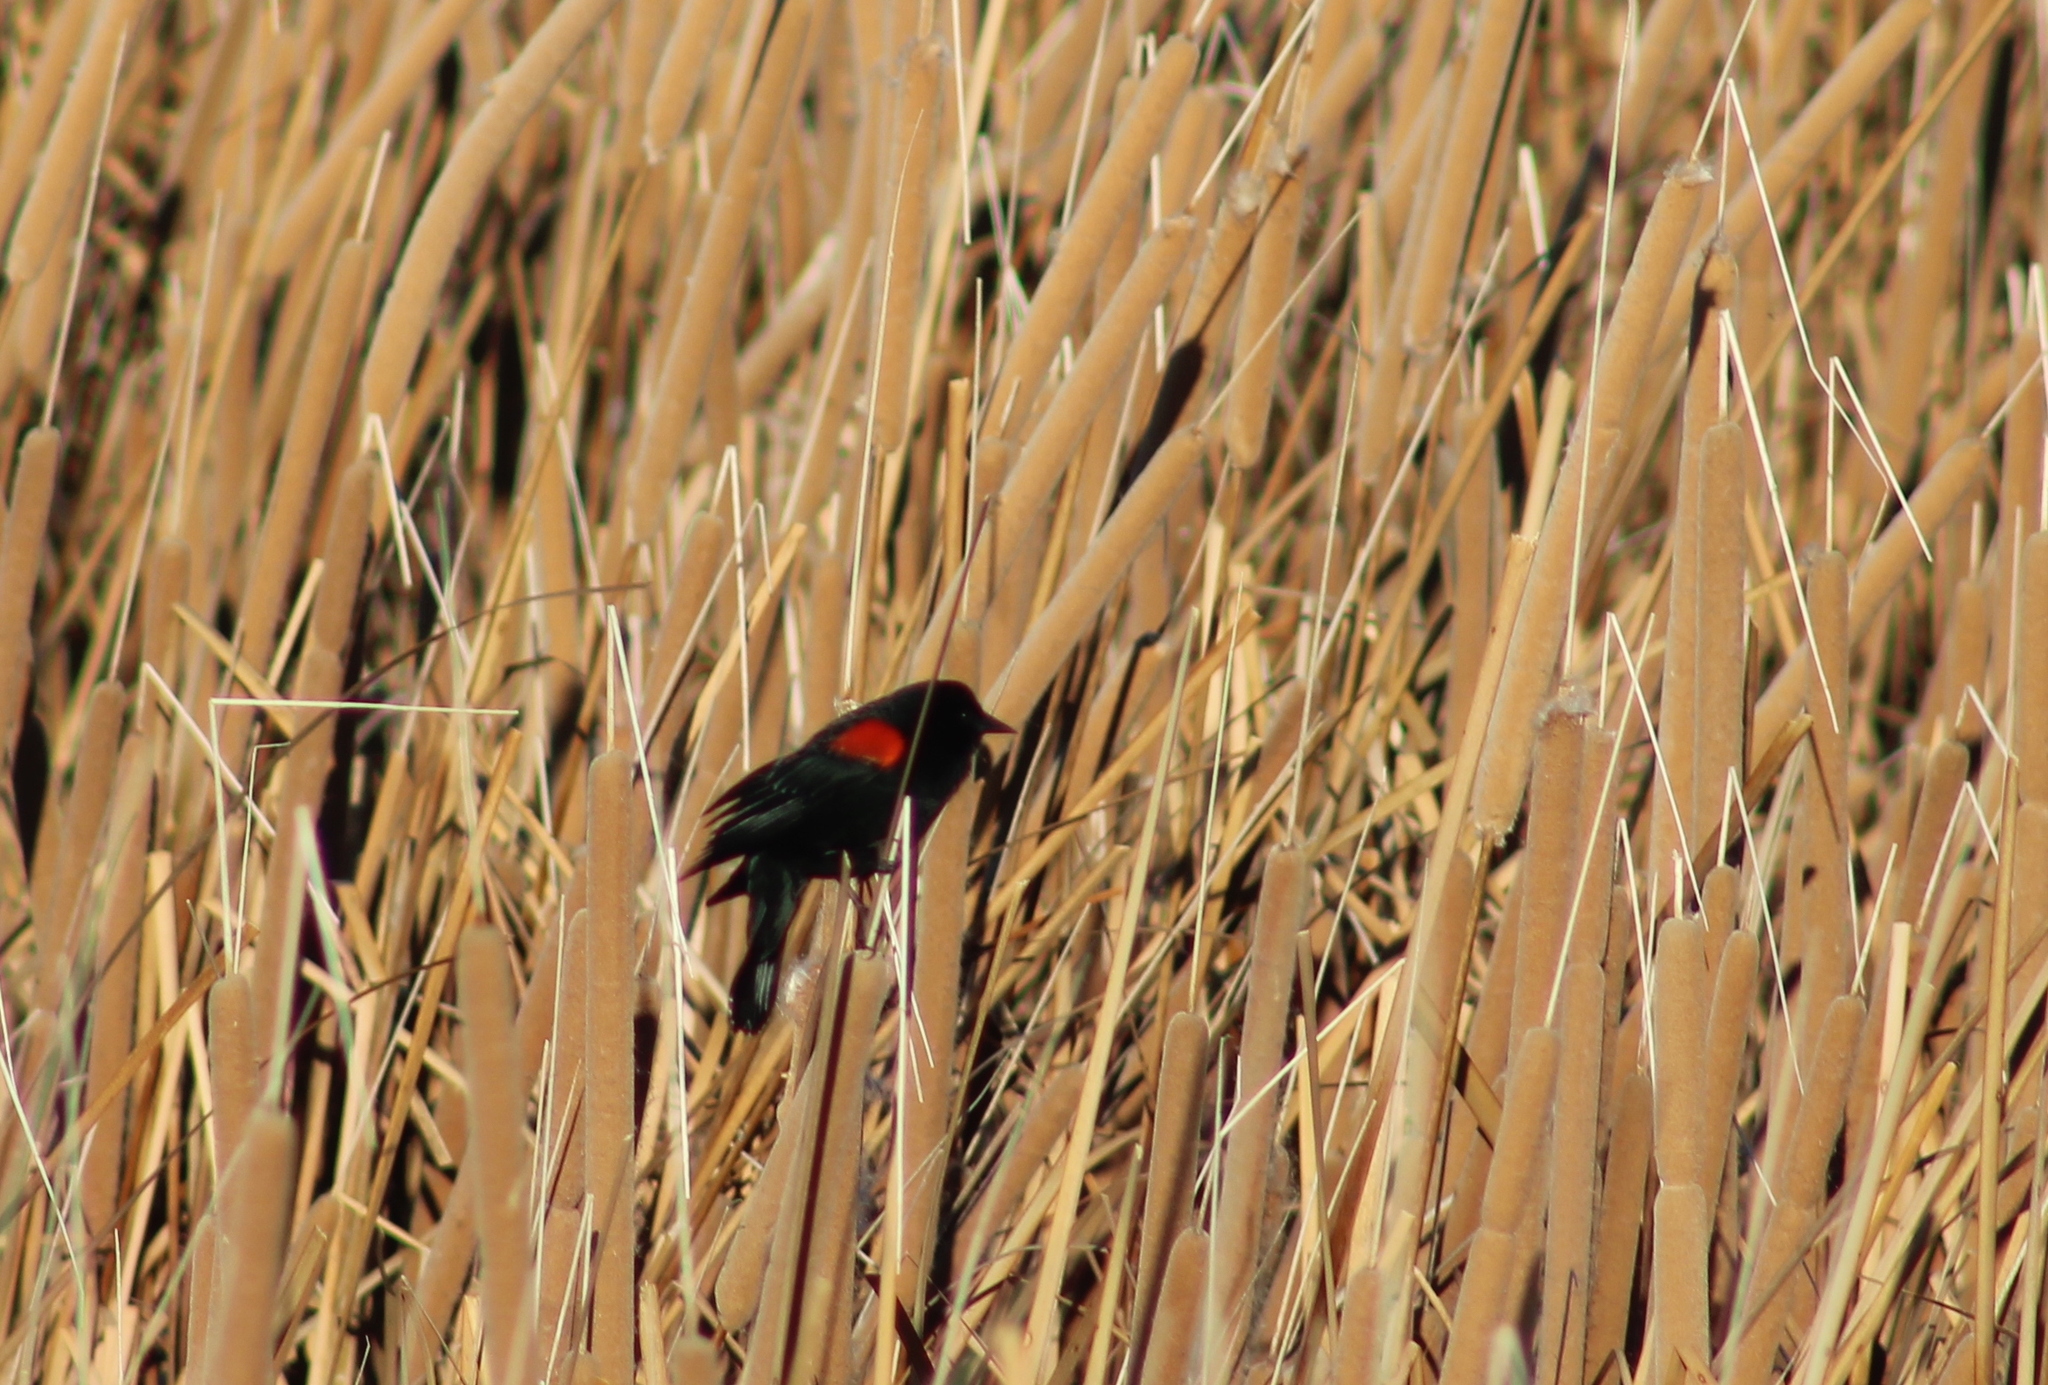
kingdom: Animalia
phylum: Chordata
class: Aves
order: Passeriformes
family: Icteridae
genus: Agelaius
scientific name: Agelaius phoeniceus
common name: Red-winged blackbird
